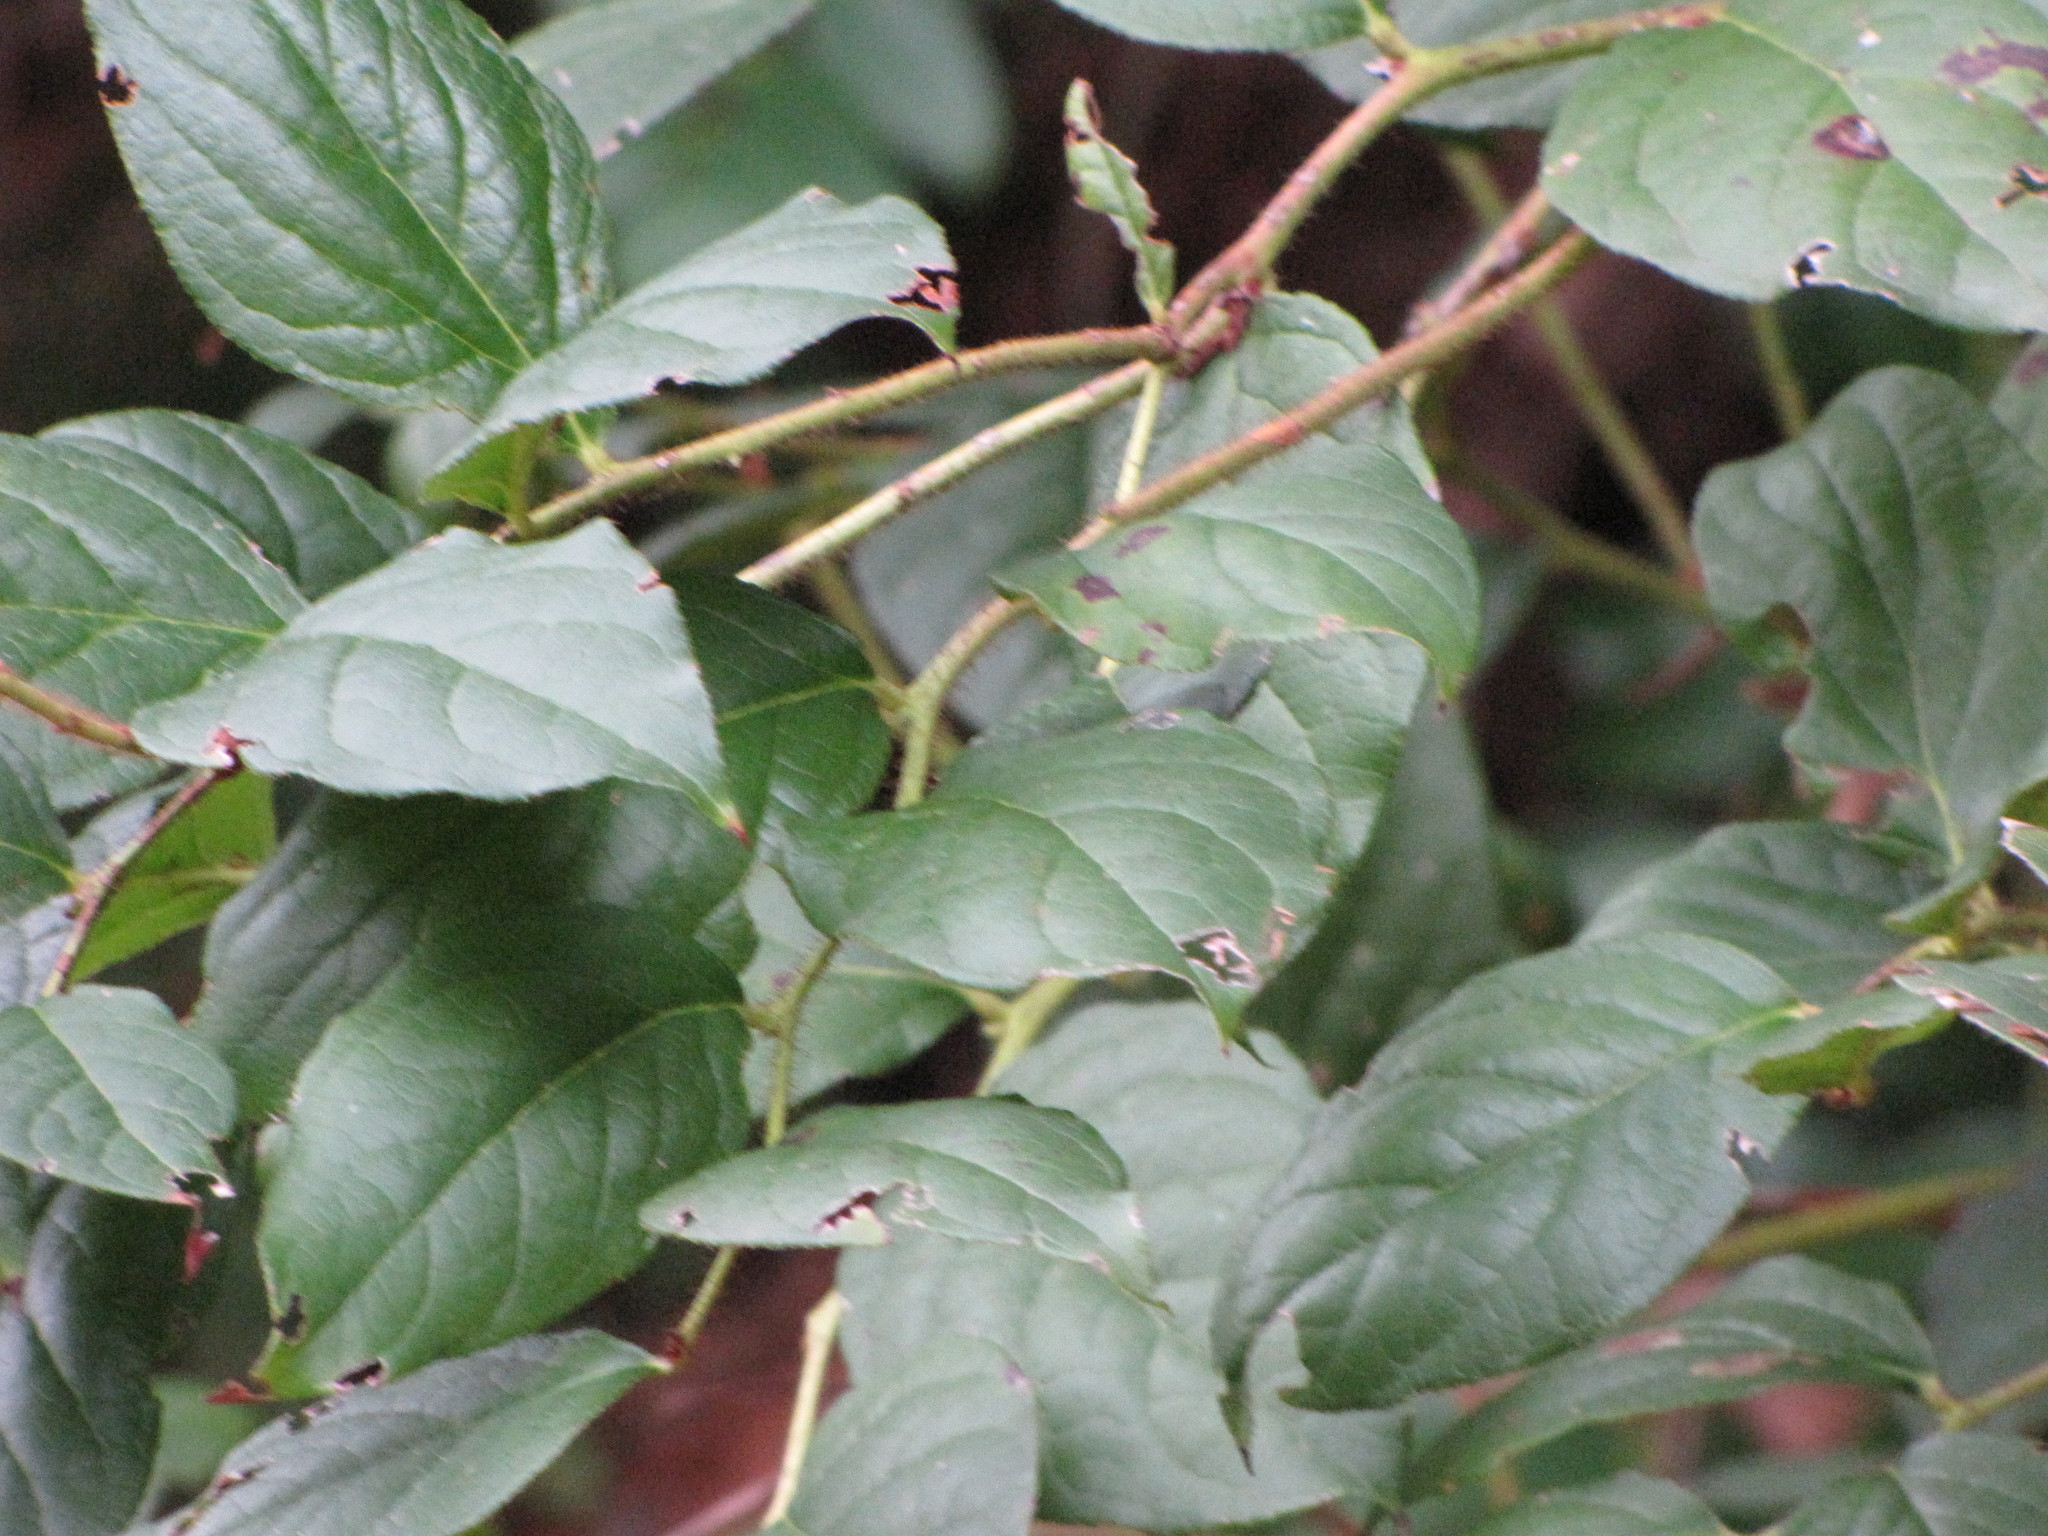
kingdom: Plantae
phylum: Tracheophyta
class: Magnoliopsida
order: Ericales
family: Ericaceae
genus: Gaultheria
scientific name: Gaultheria shallon
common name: Shallon
